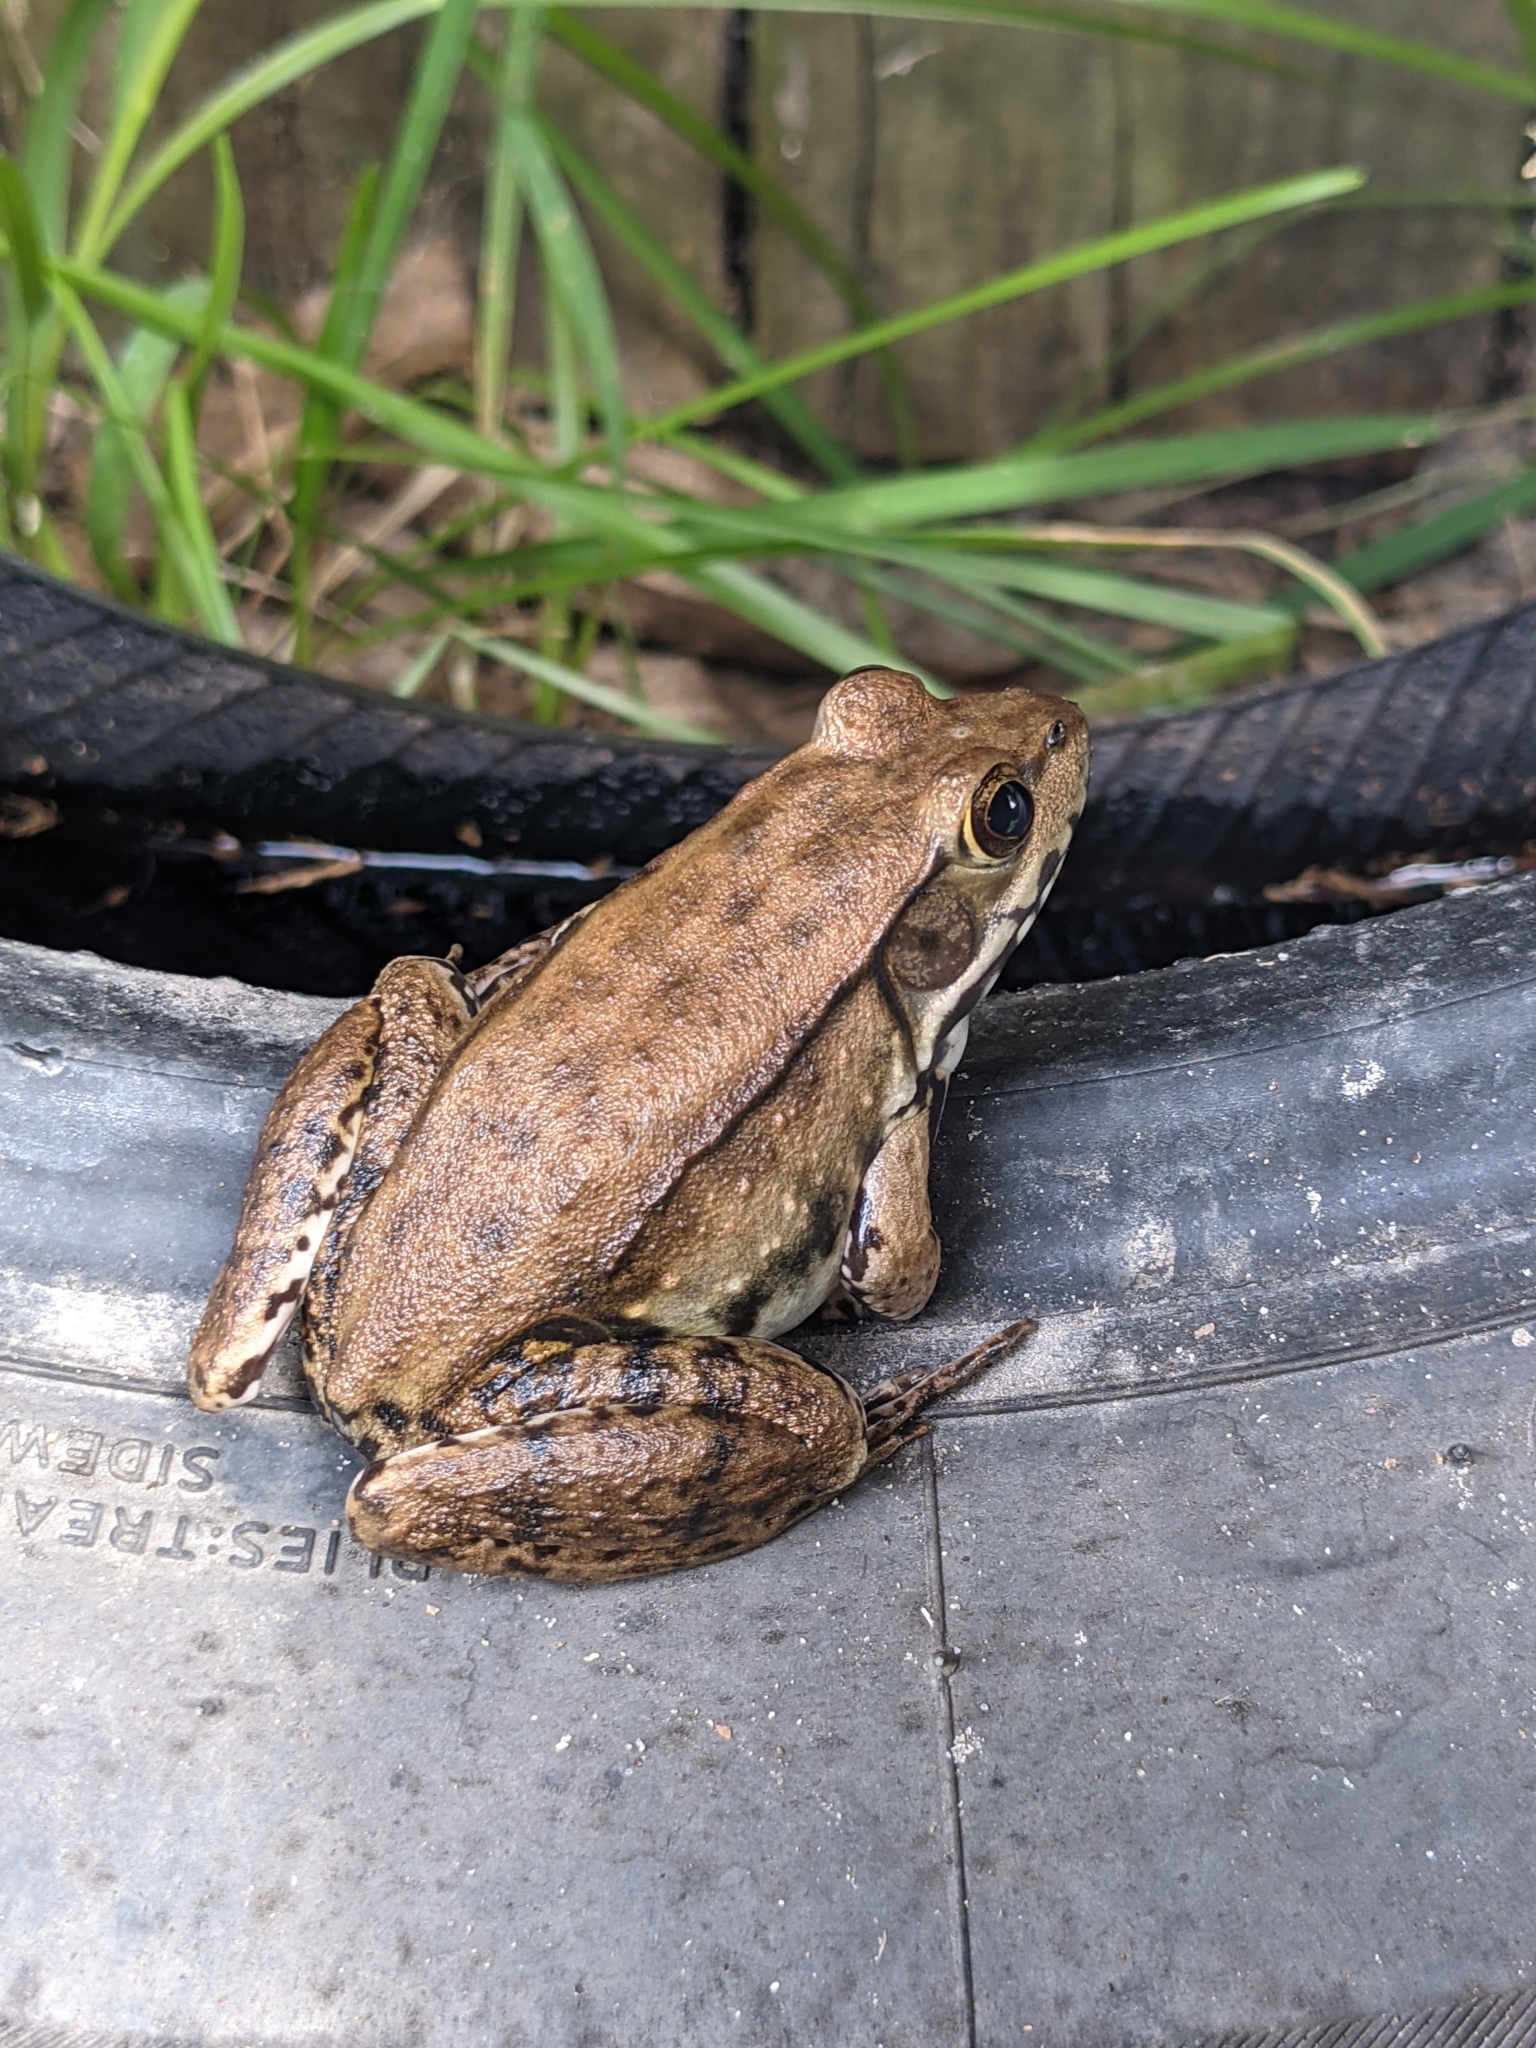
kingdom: Animalia
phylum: Chordata
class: Amphibia
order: Anura
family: Ranidae
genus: Lithobates
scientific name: Lithobates clamitans
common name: Green frog
